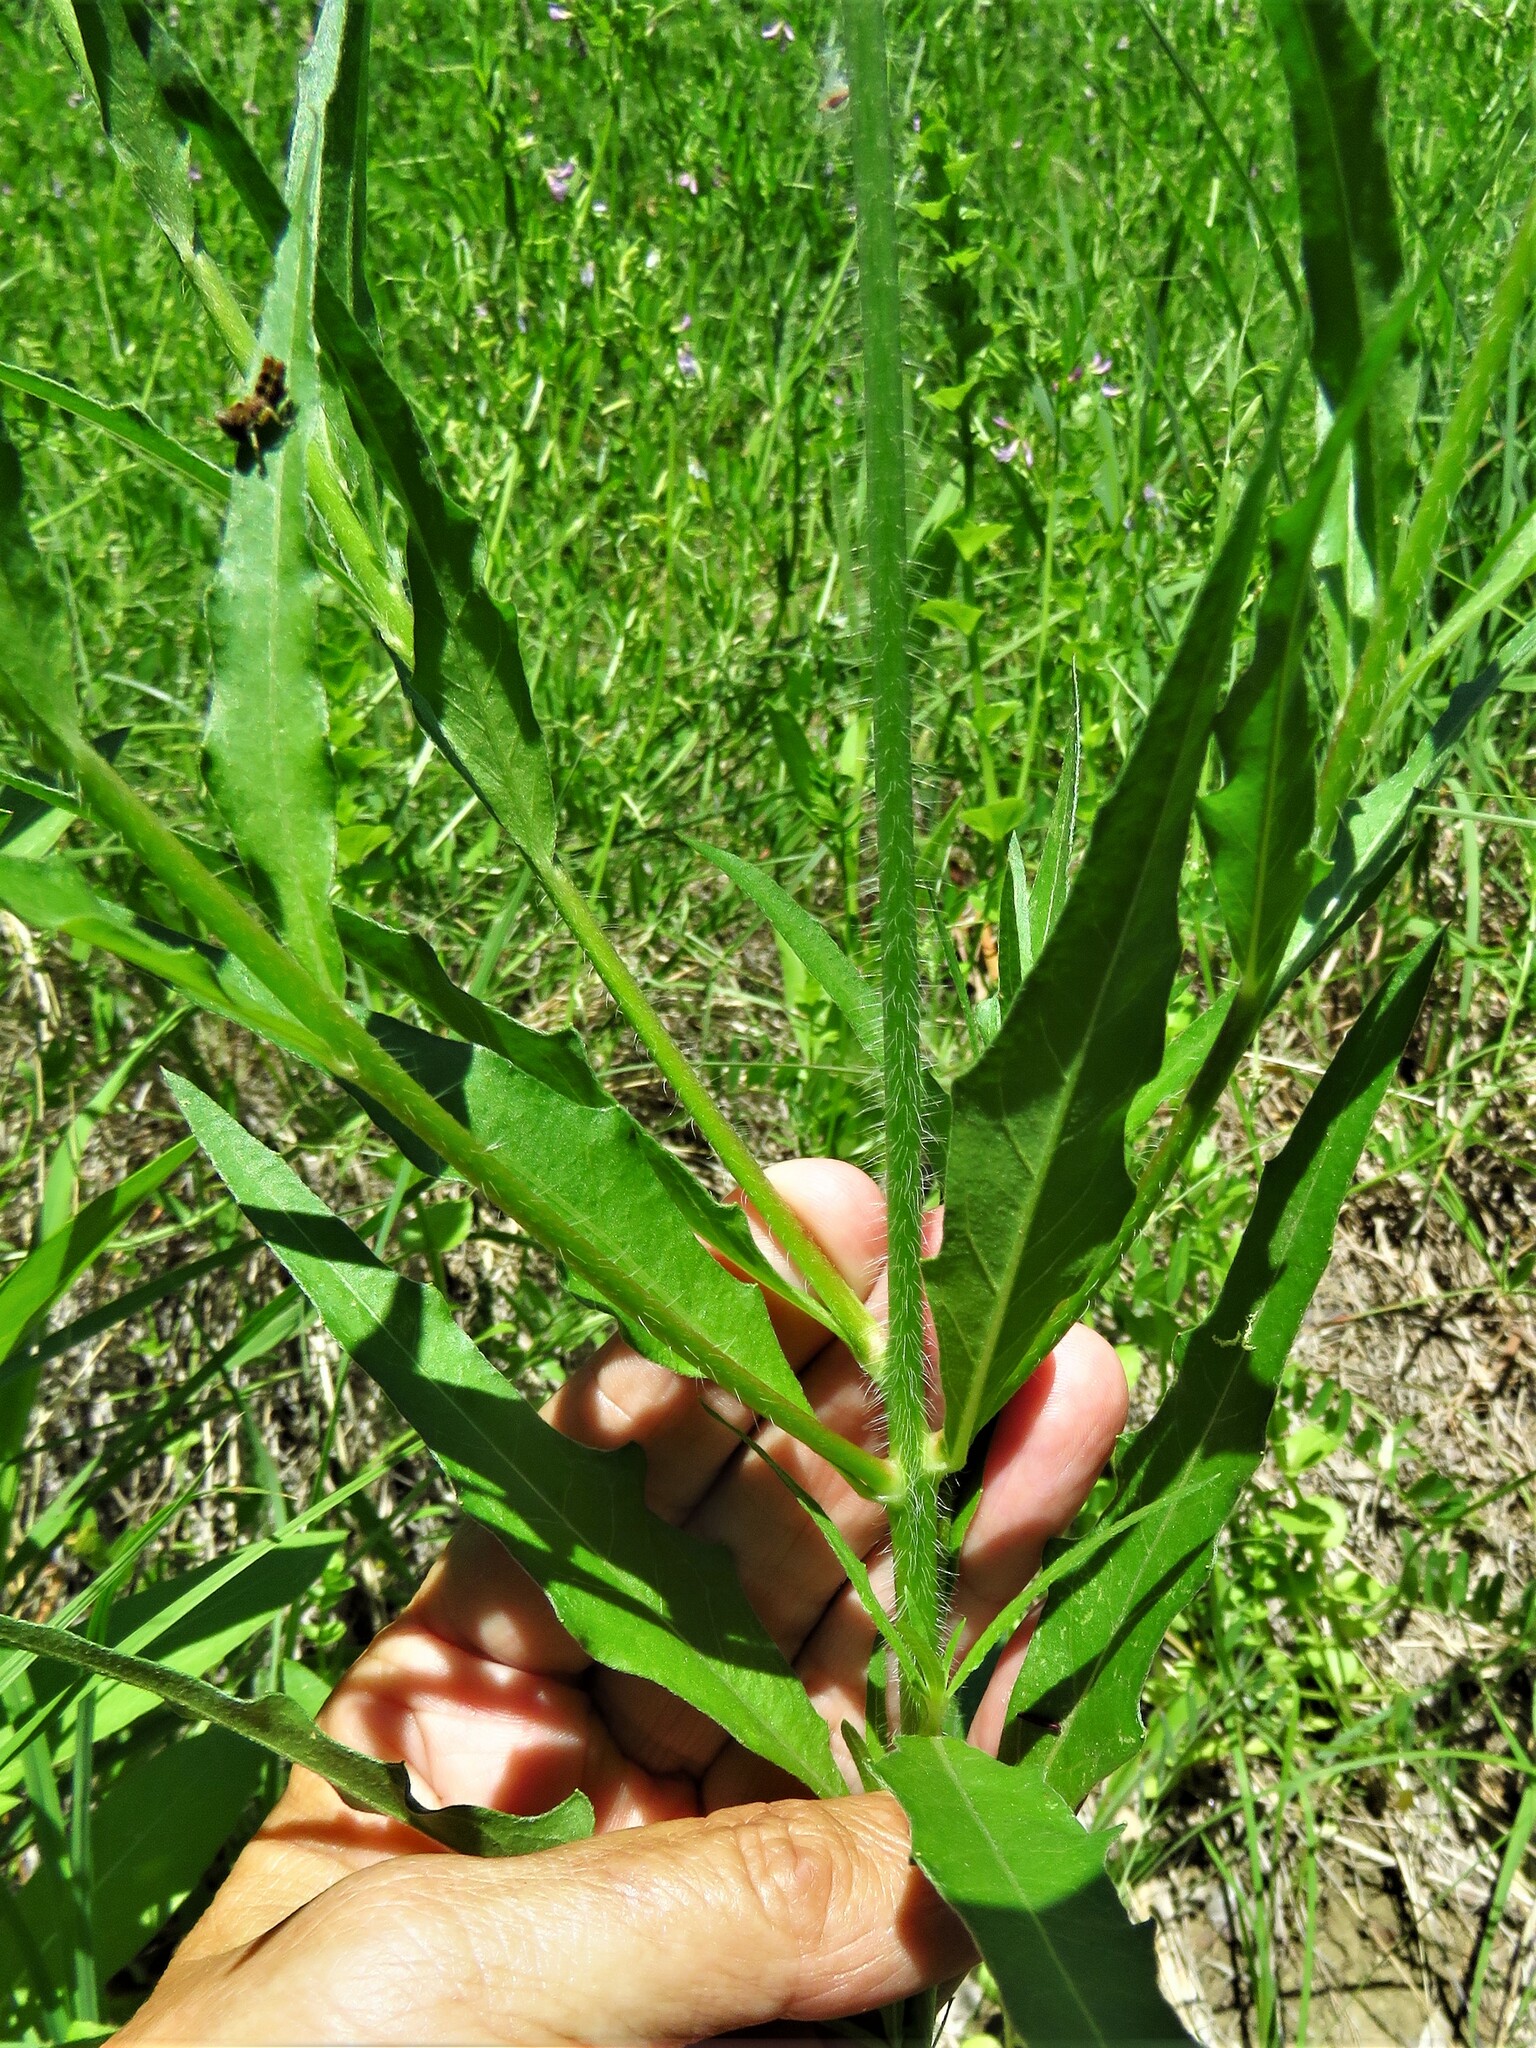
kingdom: Plantae
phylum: Tracheophyta
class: Magnoliopsida
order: Myrtales
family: Onagraceae
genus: Oenothera
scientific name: Oenothera suffulta
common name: Kisses
